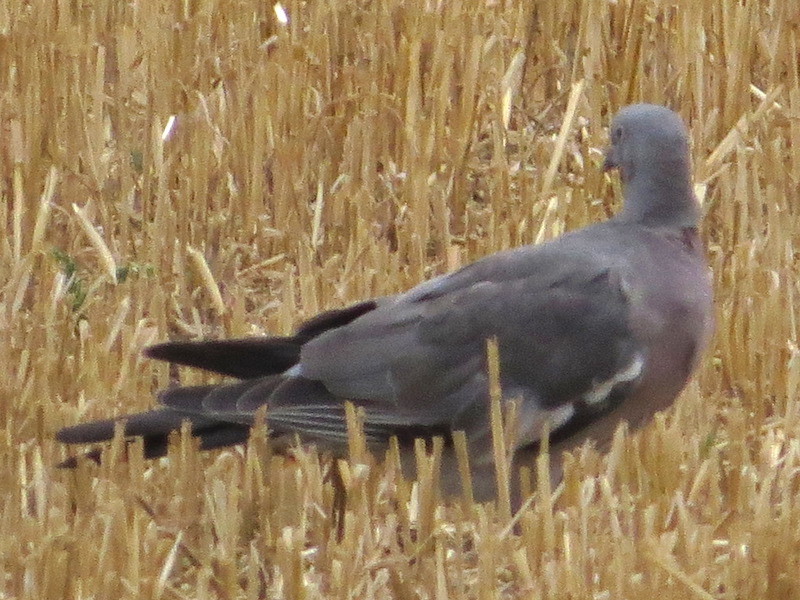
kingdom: Animalia
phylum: Chordata
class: Aves
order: Columbiformes
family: Columbidae
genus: Columba
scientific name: Columba palumbus
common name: Common wood pigeon
